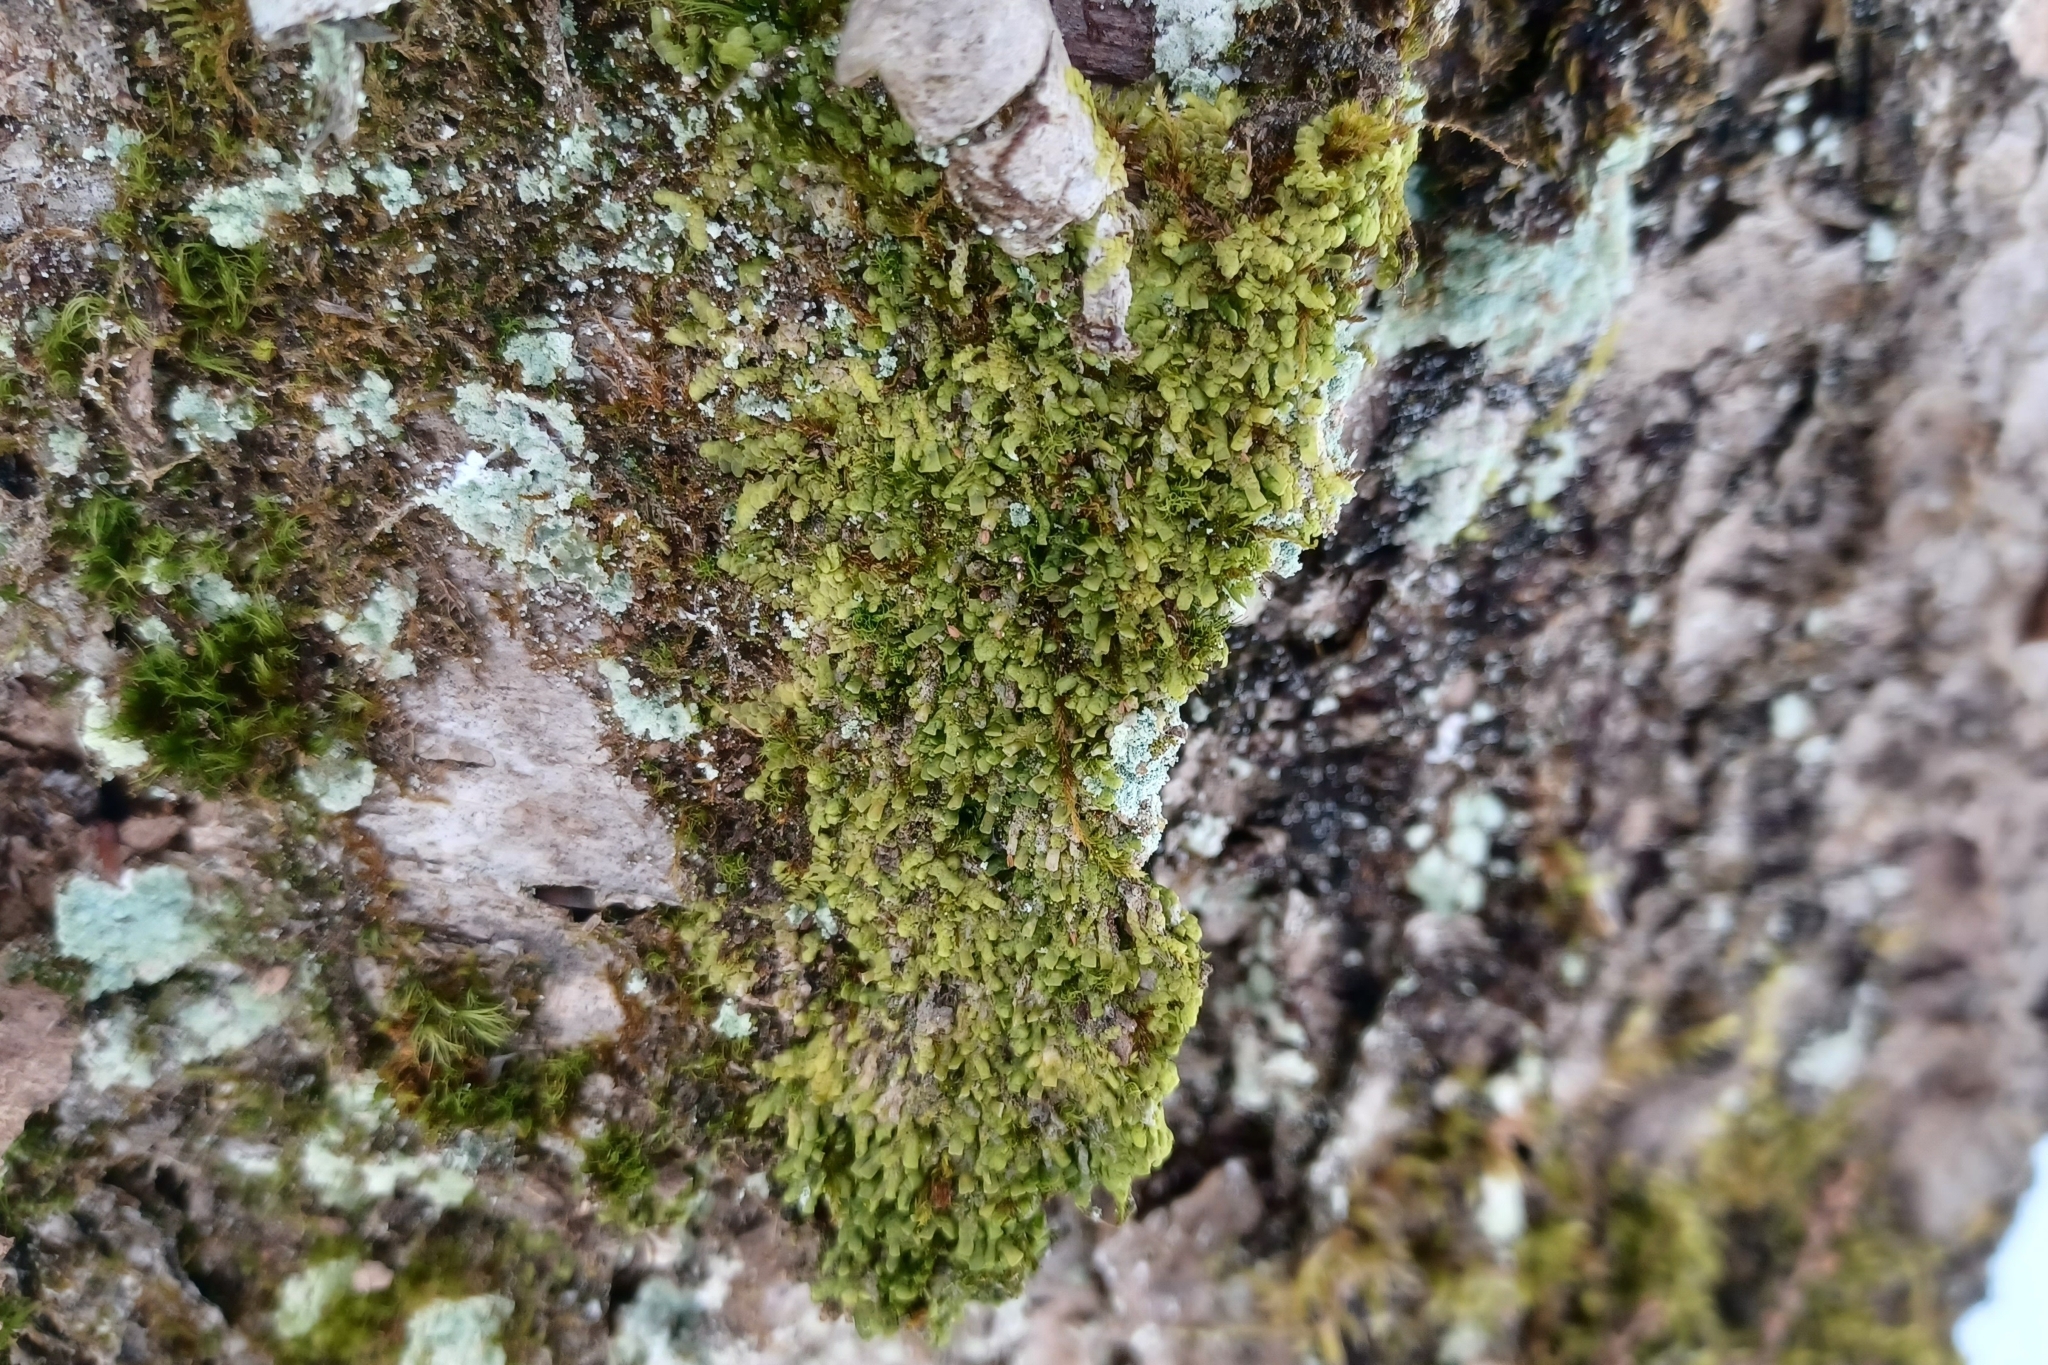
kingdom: Plantae
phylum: Marchantiophyta
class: Jungermanniopsida
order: Porellales
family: Radulaceae
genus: Radula
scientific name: Radula complanata
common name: Flat-leaved scalewort
